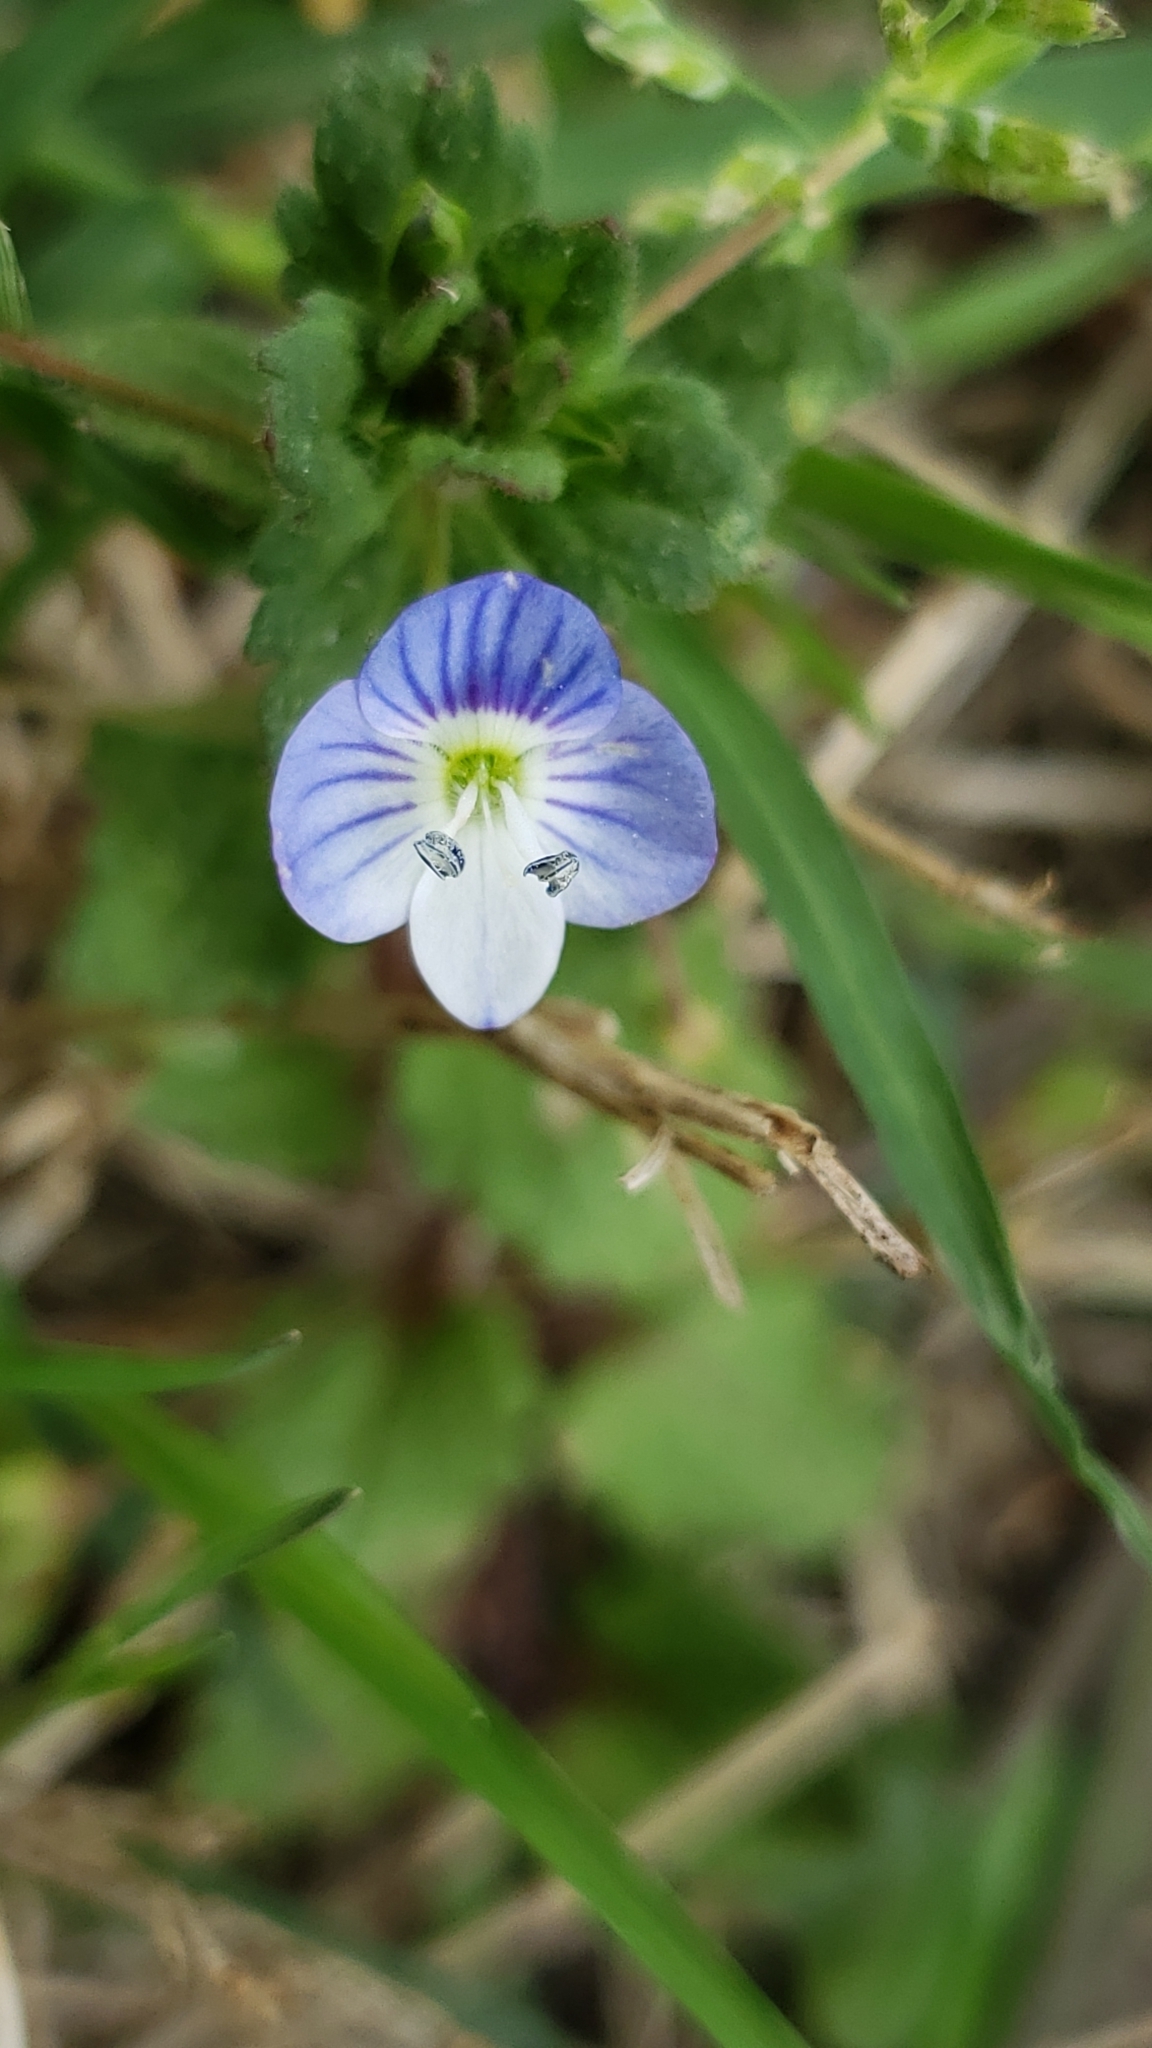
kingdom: Plantae
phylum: Tracheophyta
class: Magnoliopsida
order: Lamiales
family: Plantaginaceae
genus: Veronica
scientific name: Veronica persica
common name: Common field-speedwell
